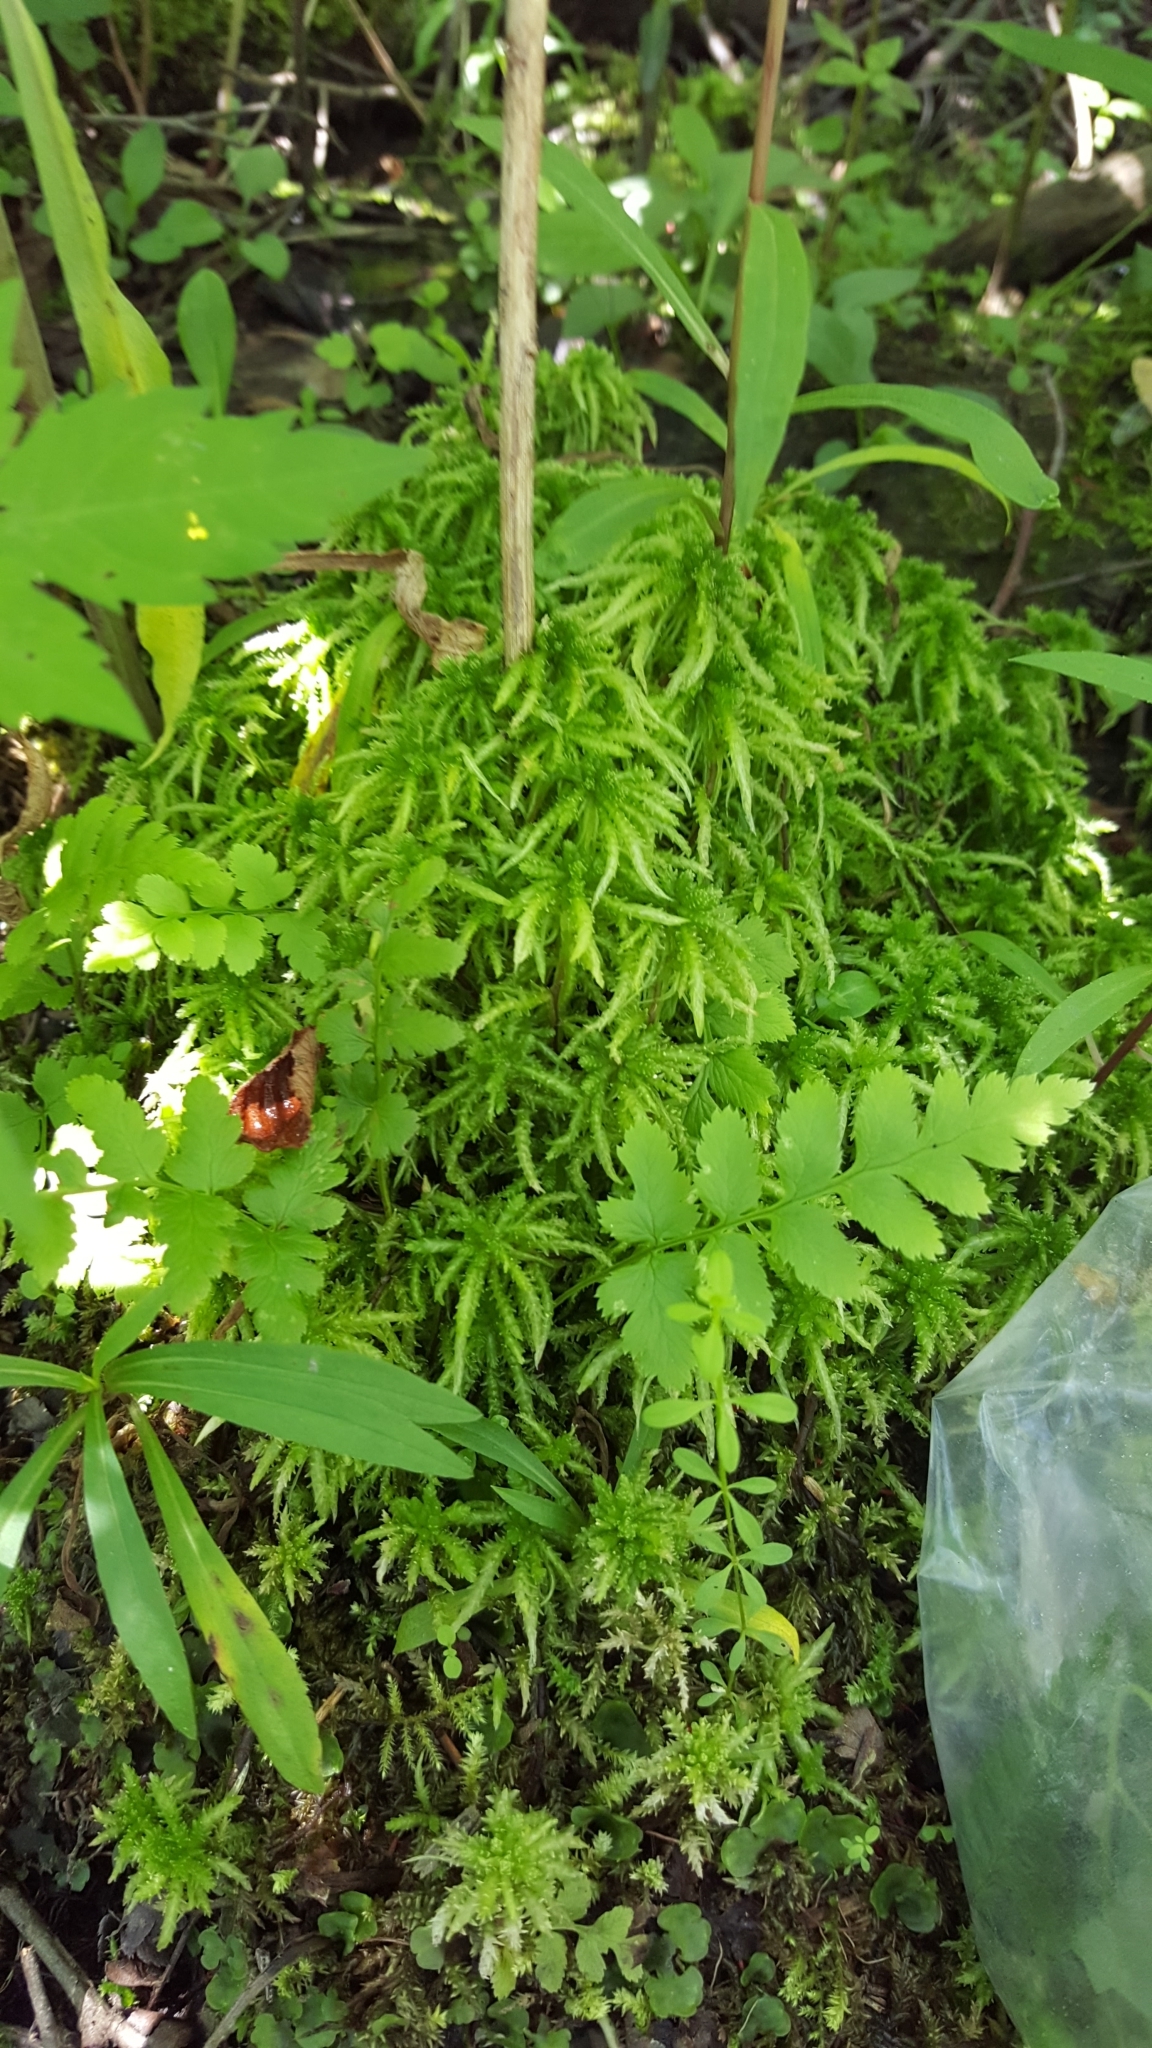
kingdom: Plantae
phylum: Bryophyta
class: Sphagnopsida
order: Sphagnales
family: Sphagnaceae
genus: Sphagnum
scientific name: Sphagnum squarrosum
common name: Shaggy peat moss
